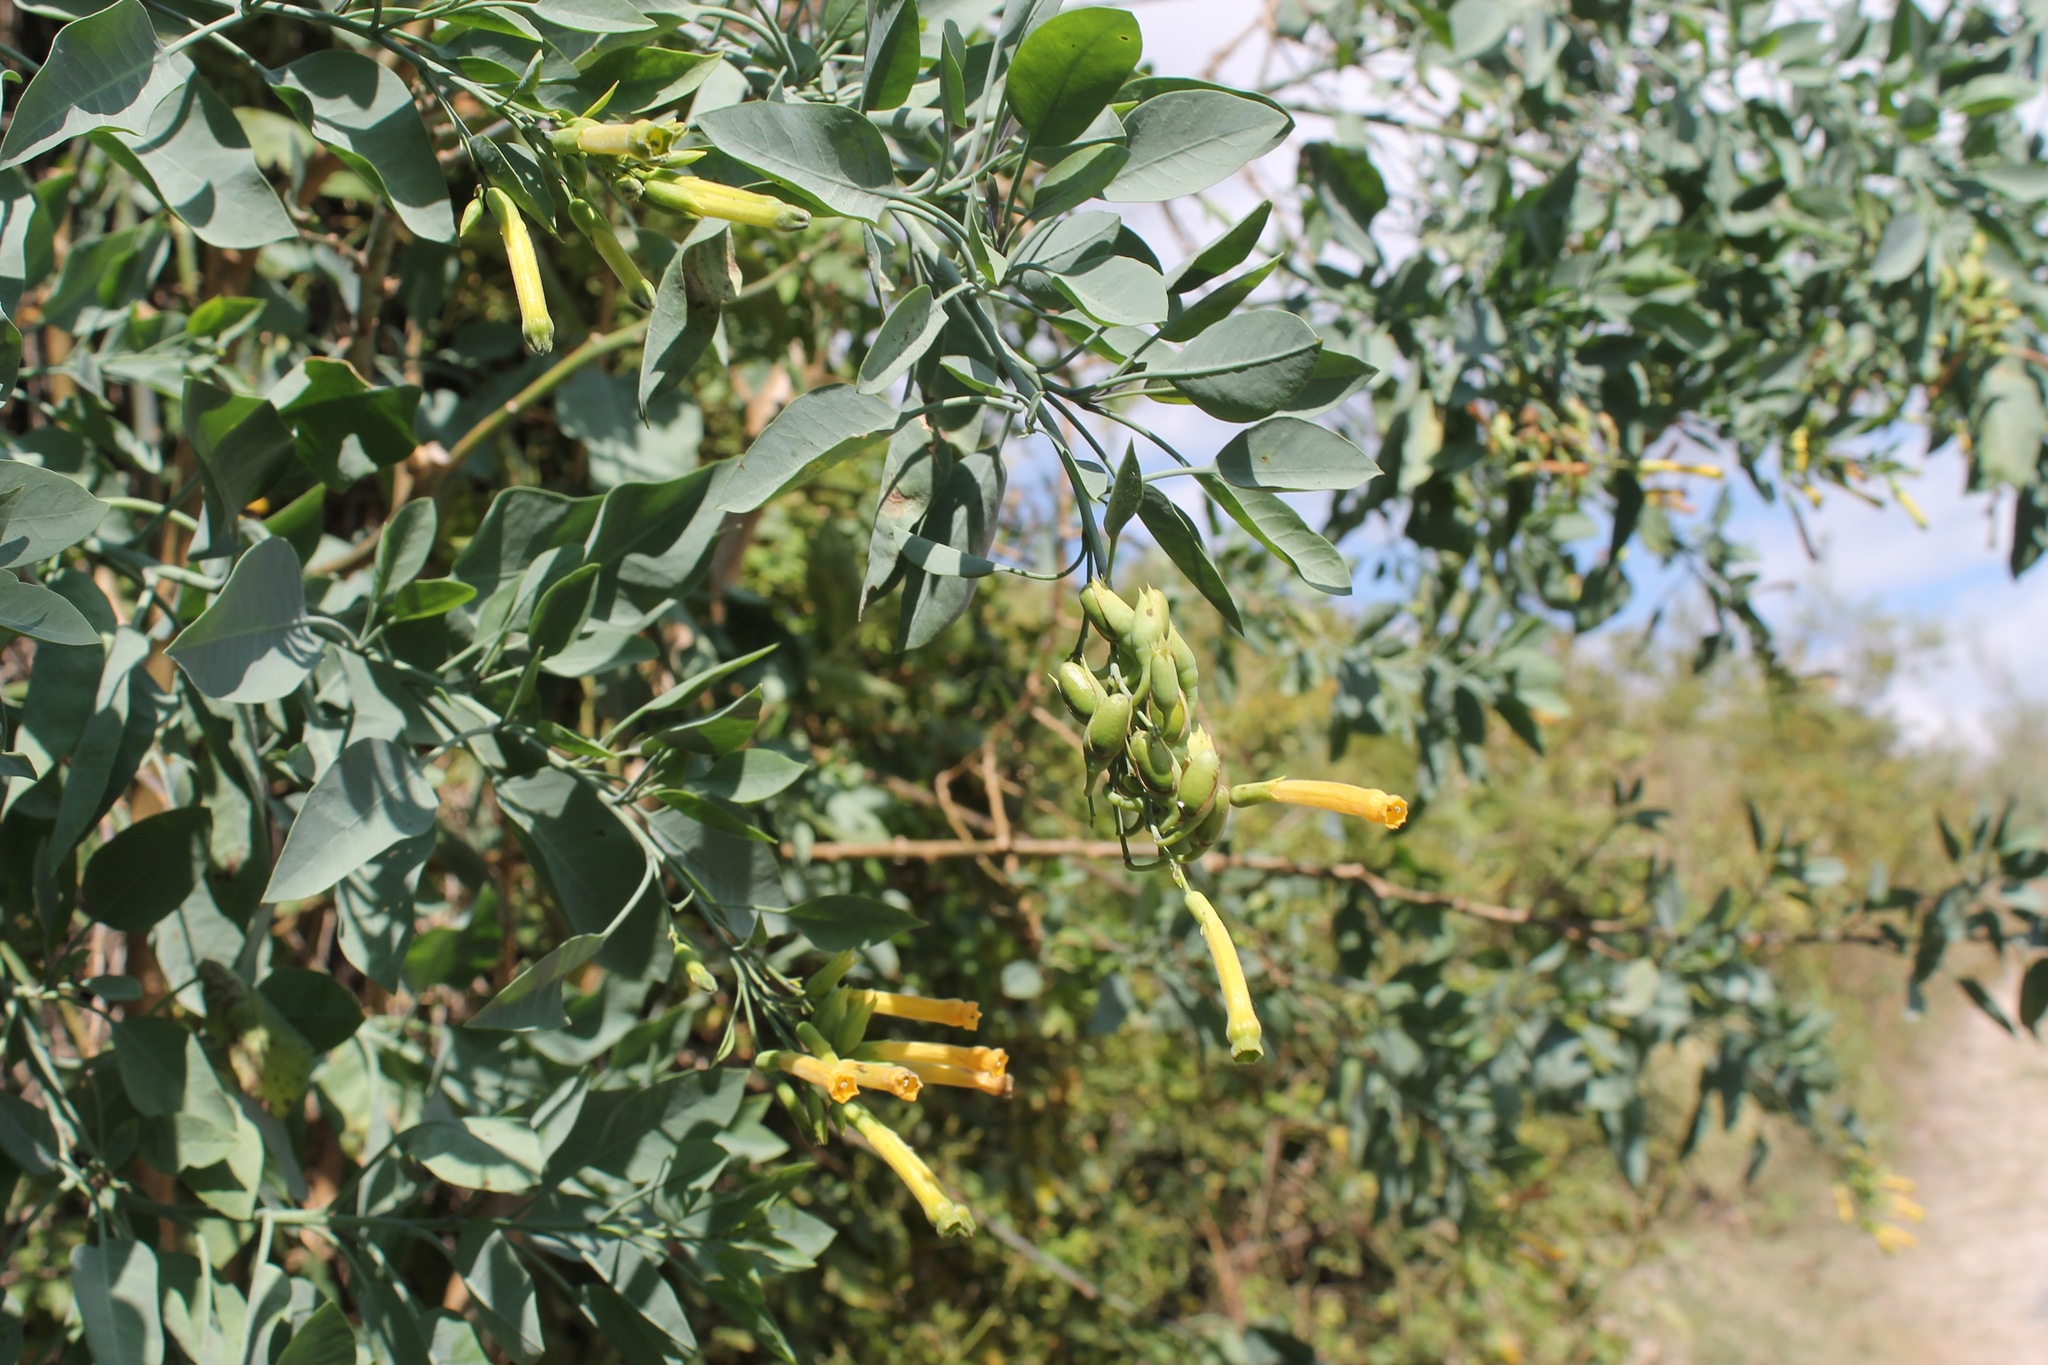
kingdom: Plantae
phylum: Tracheophyta
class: Magnoliopsida
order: Solanales
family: Solanaceae
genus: Nicotiana
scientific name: Nicotiana glauca
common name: Tree tobacco
